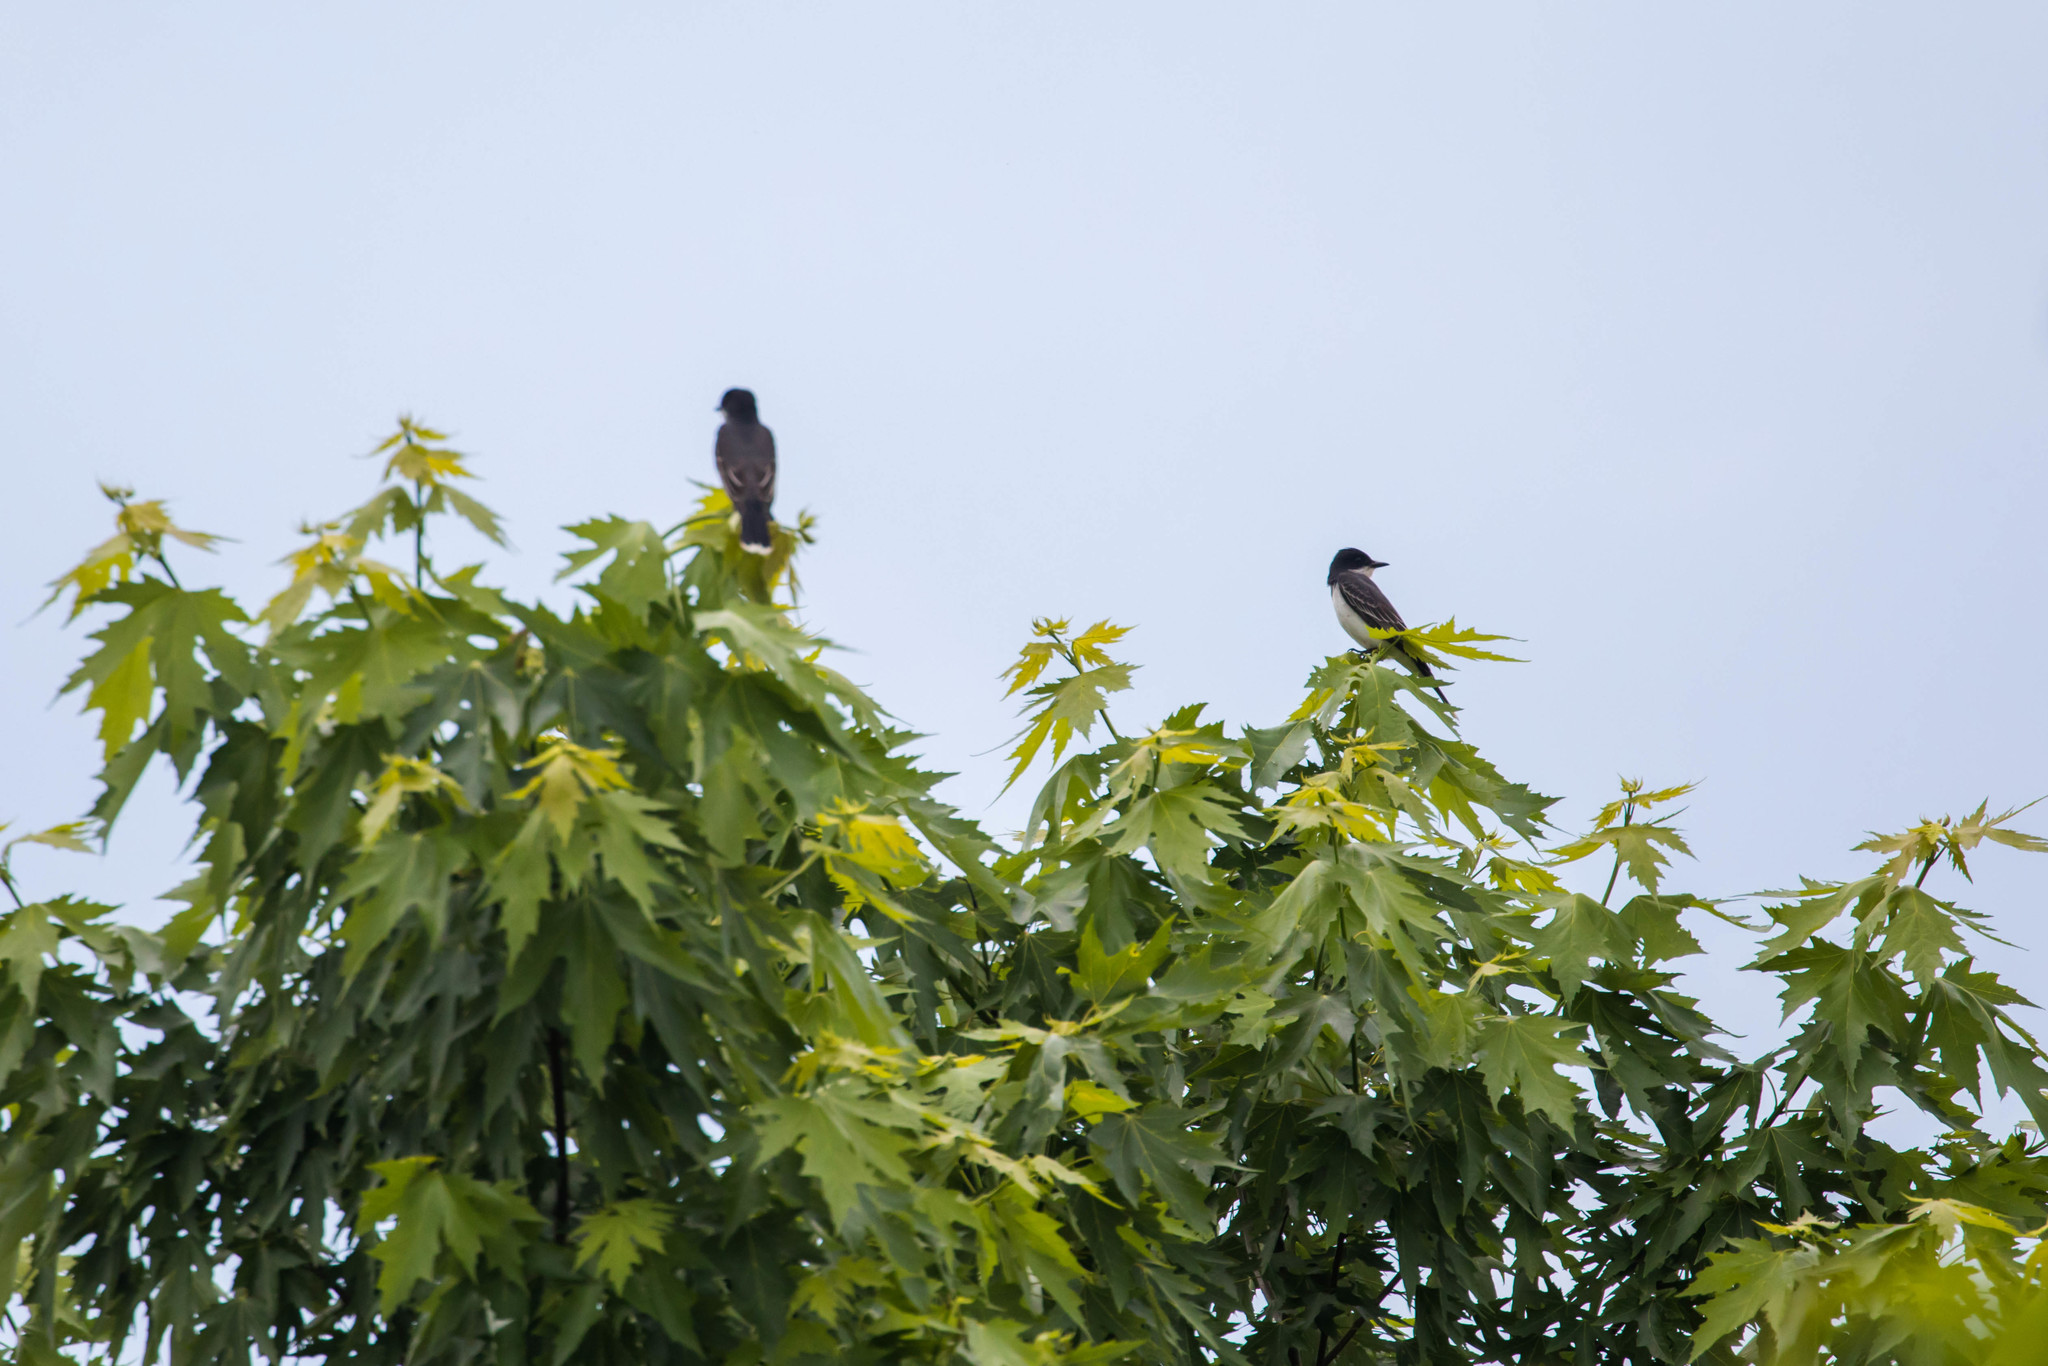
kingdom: Animalia
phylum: Chordata
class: Aves
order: Passeriformes
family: Tyrannidae
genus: Tyrannus
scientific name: Tyrannus tyrannus
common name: Eastern kingbird
